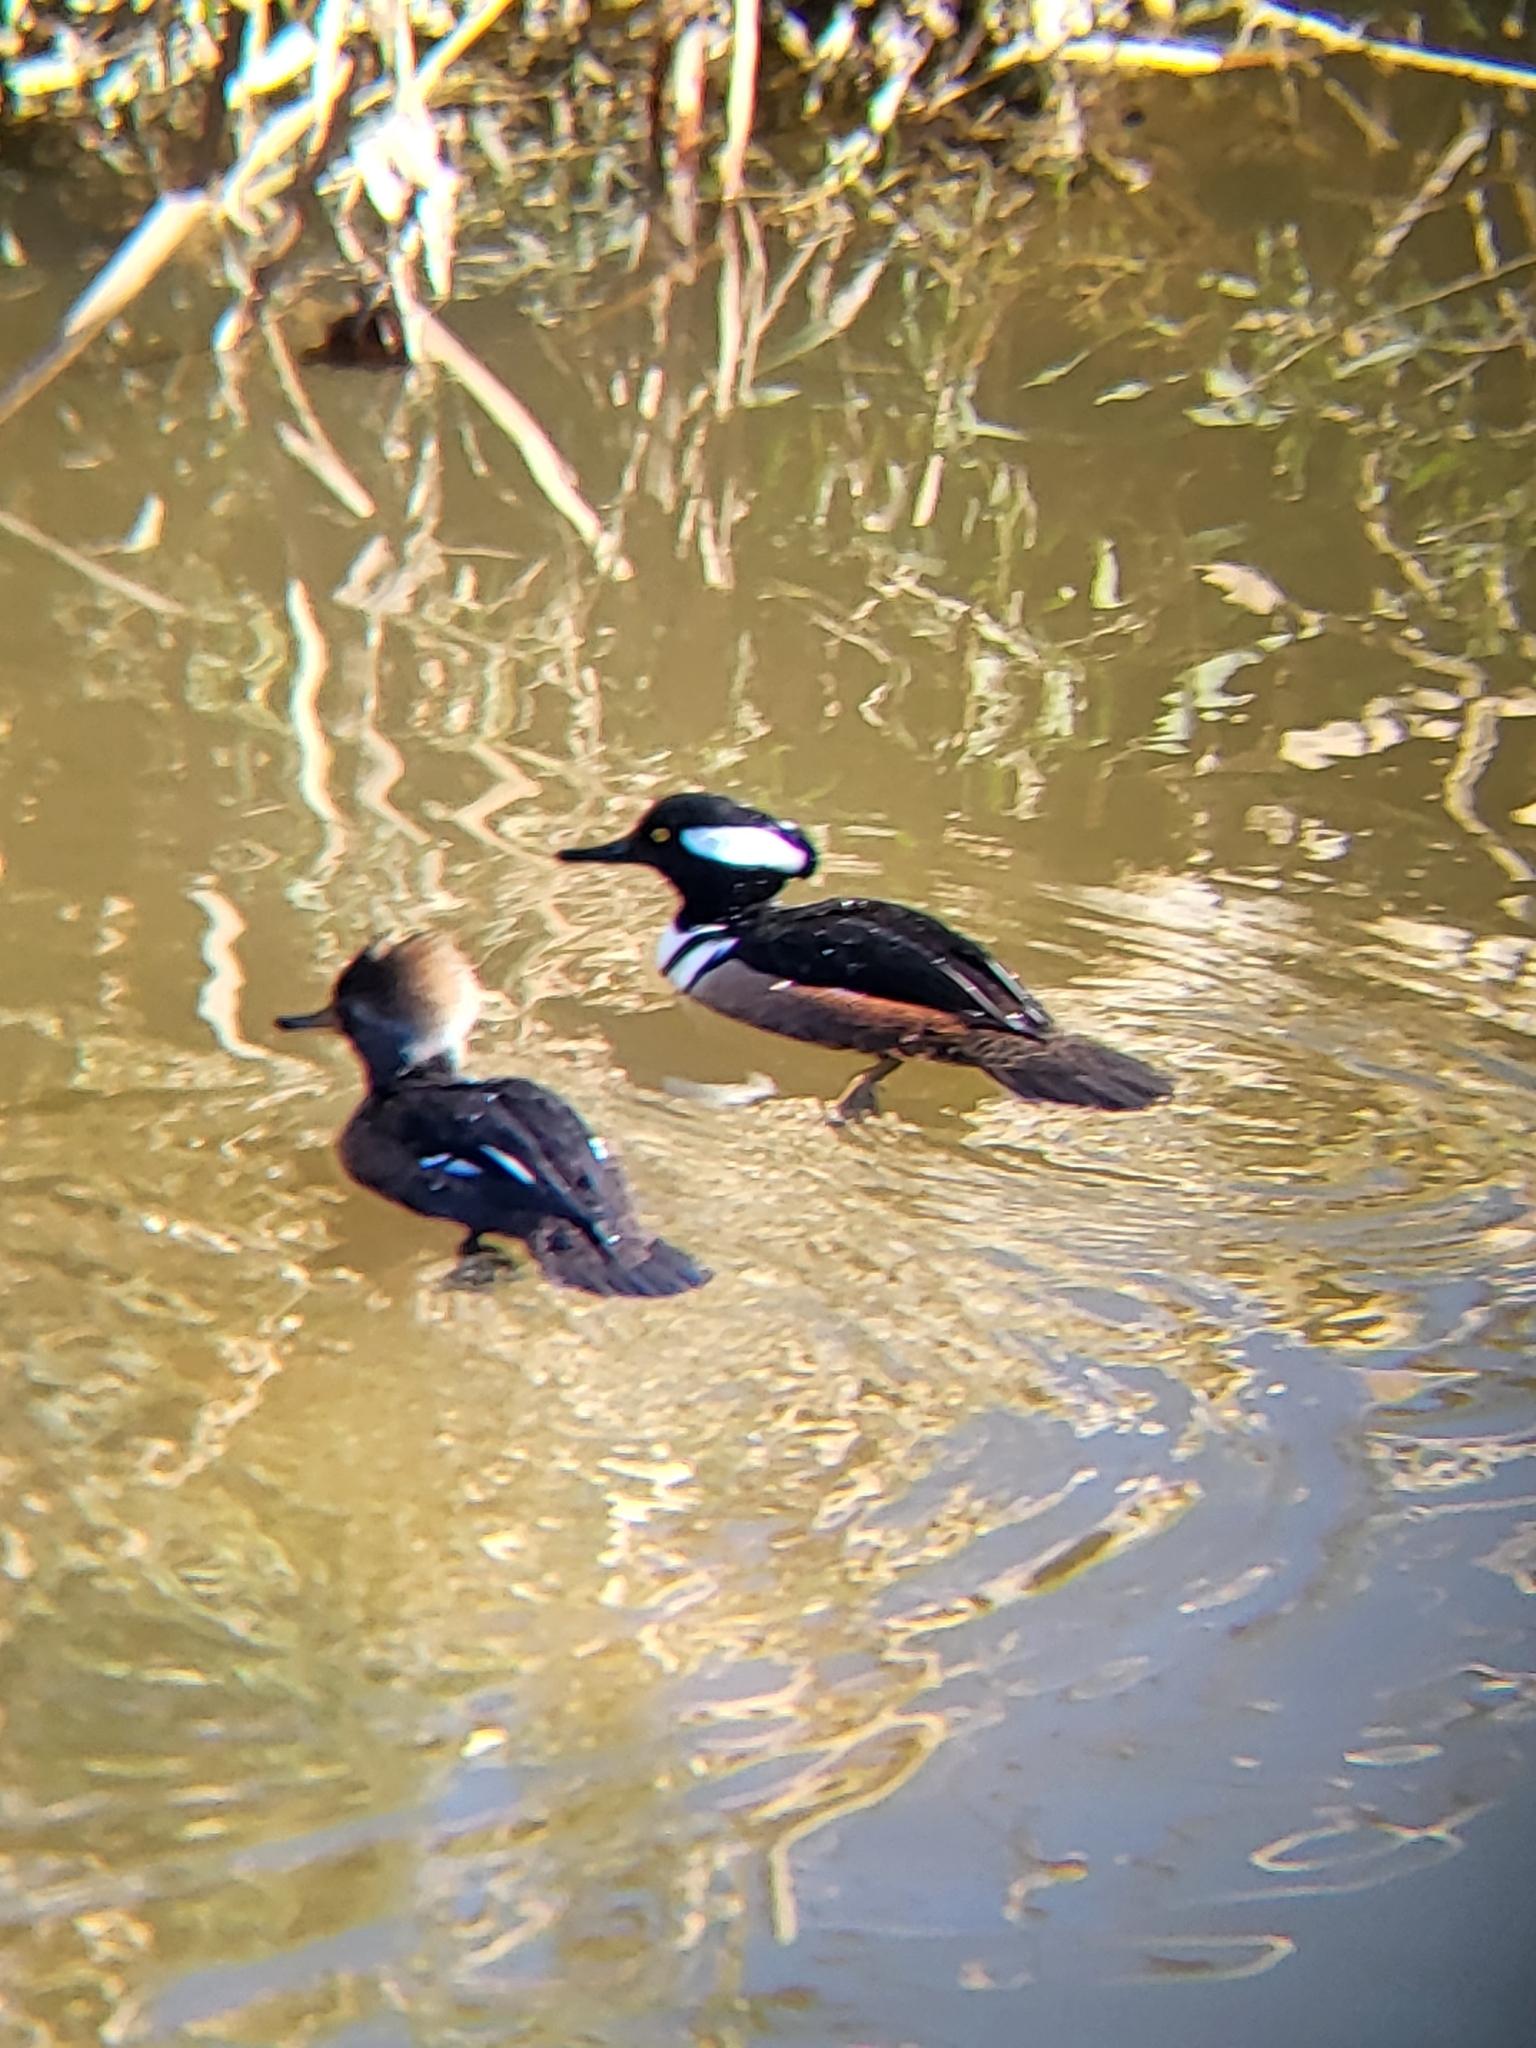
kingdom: Animalia
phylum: Chordata
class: Aves
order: Anseriformes
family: Anatidae
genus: Lophodytes
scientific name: Lophodytes cucullatus
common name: Hooded merganser
